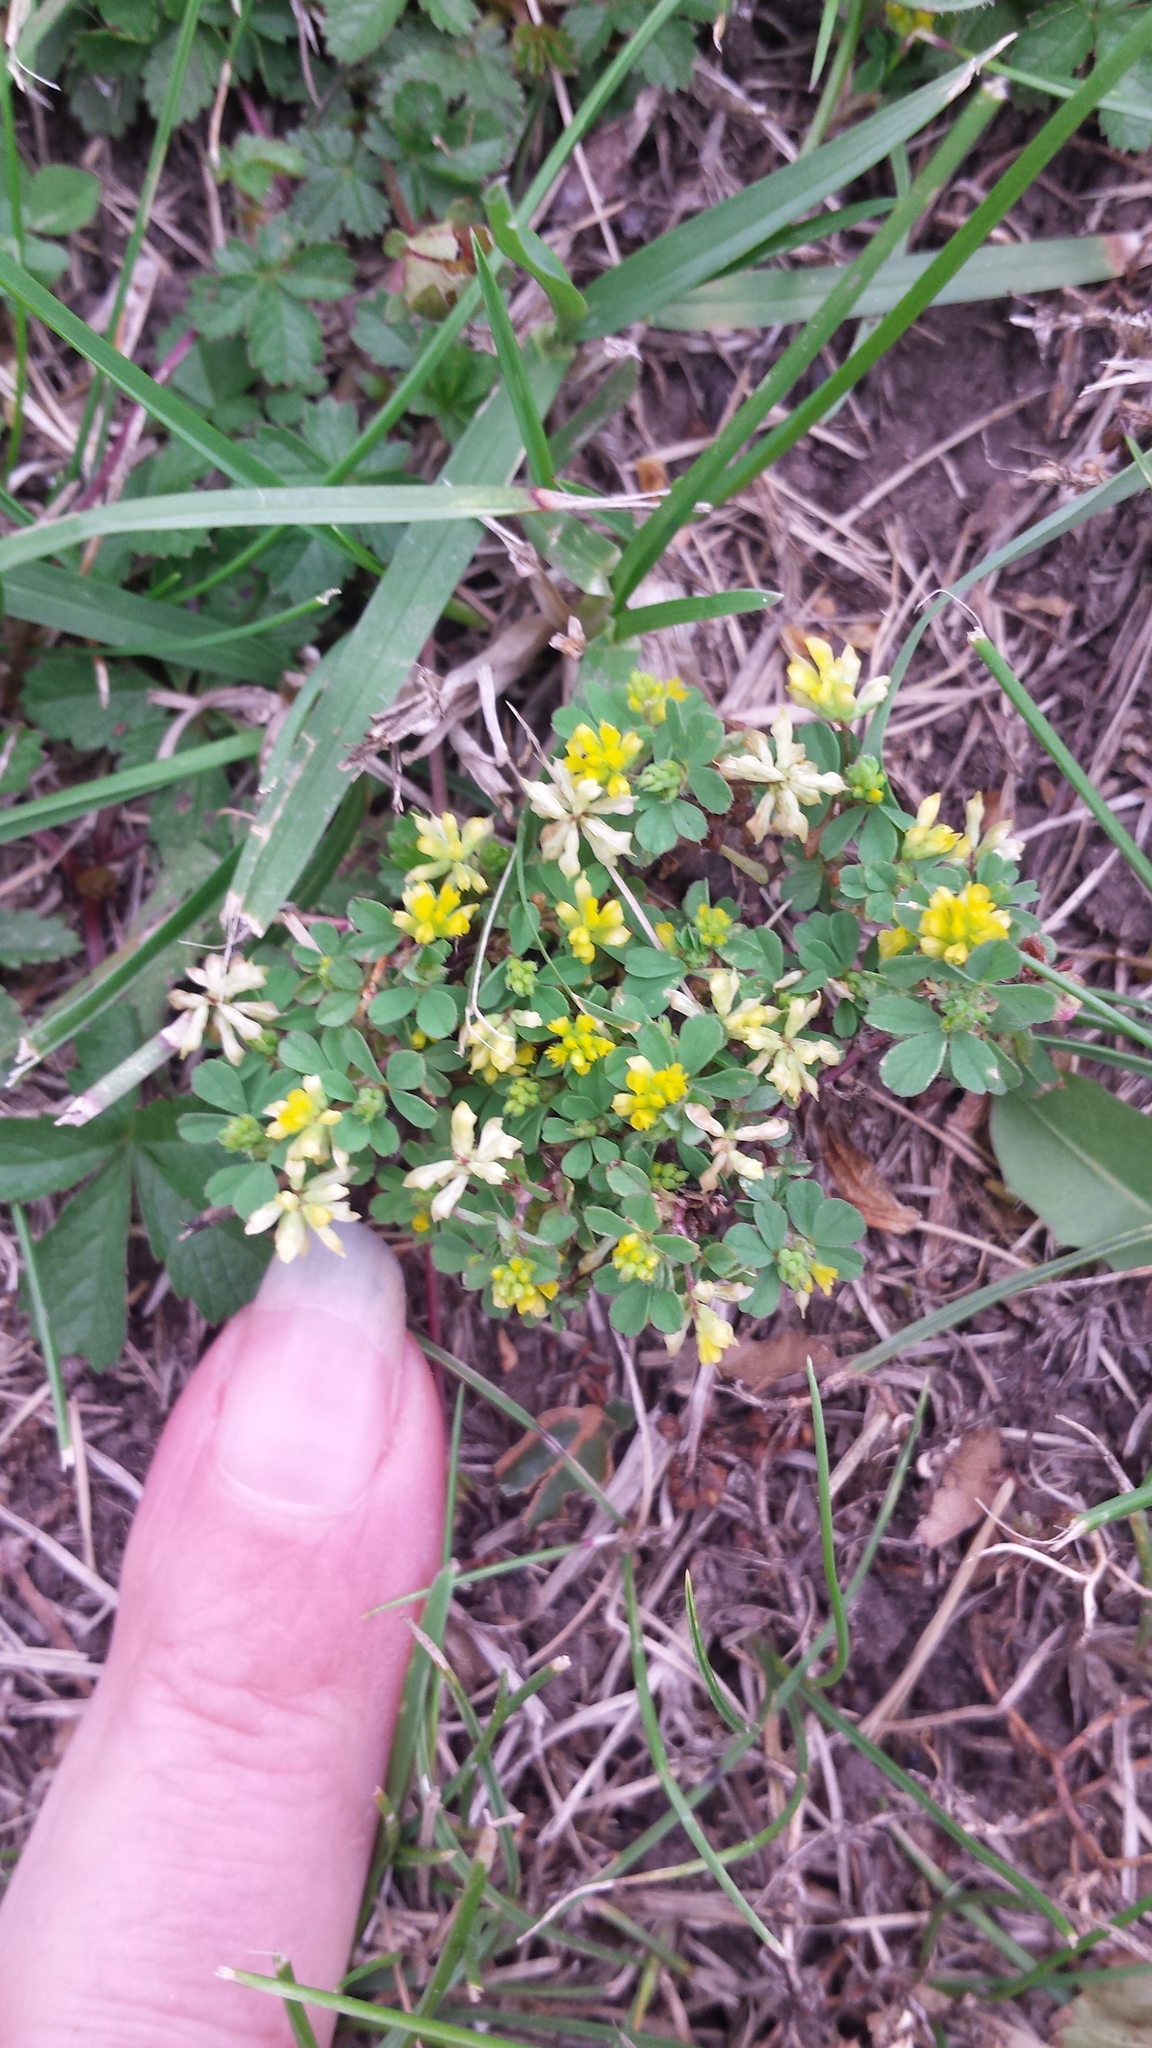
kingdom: Plantae
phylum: Tracheophyta
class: Magnoliopsida
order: Fabales
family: Fabaceae
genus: Trifolium
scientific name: Trifolium dubium
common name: Suckling clover
